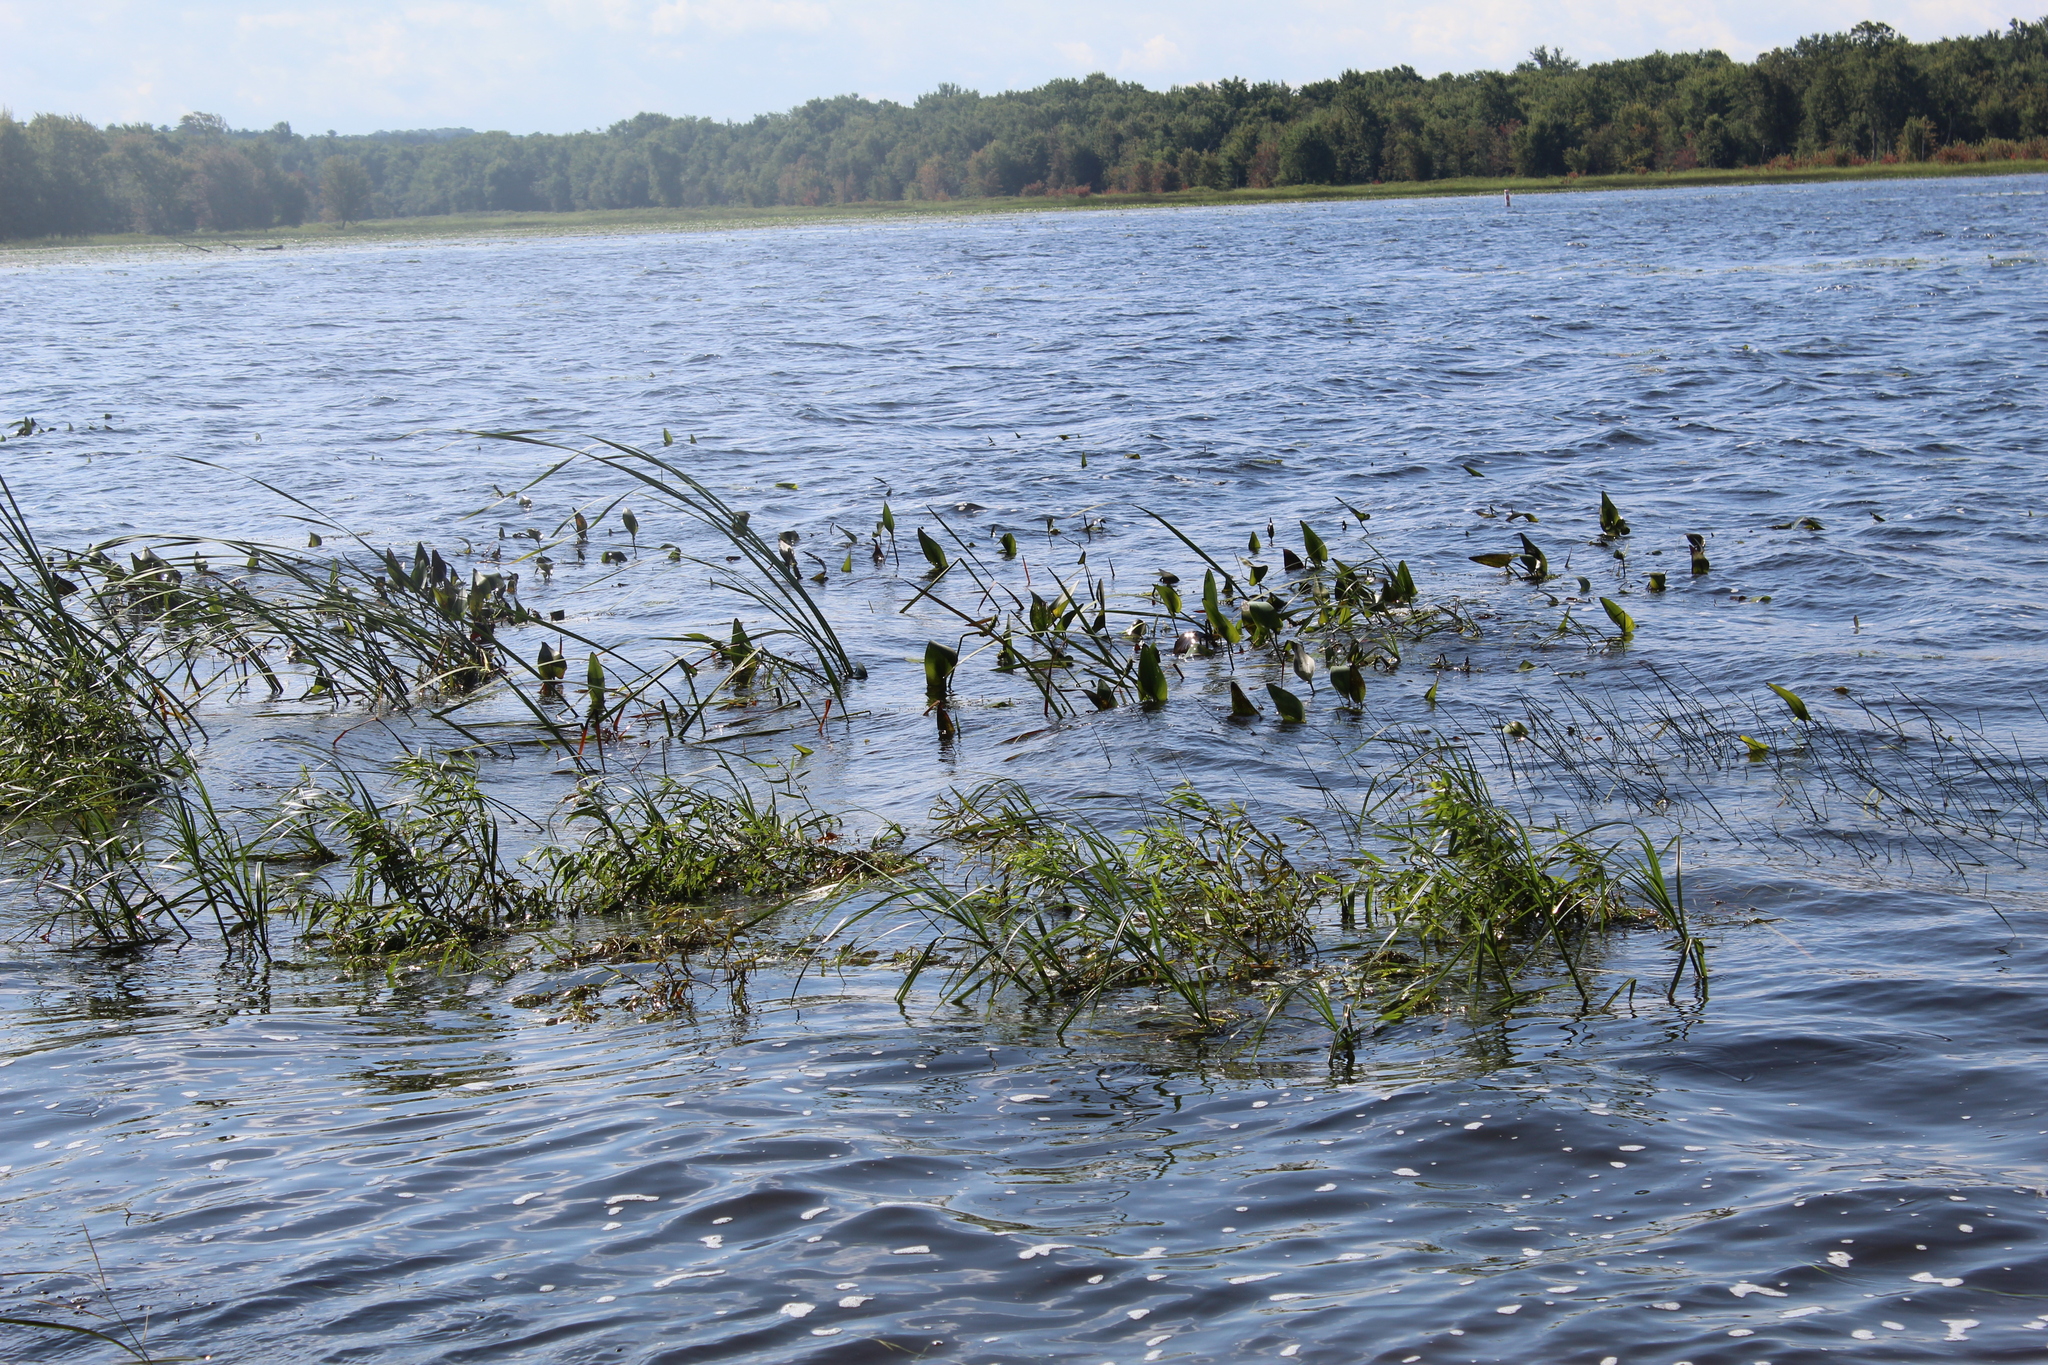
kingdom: Plantae
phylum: Tracheophyta
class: Liliopsida
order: Commelinales
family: Pontederiaceae
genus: Pontederia
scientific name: Pontederia cordata
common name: Pickerelweed
